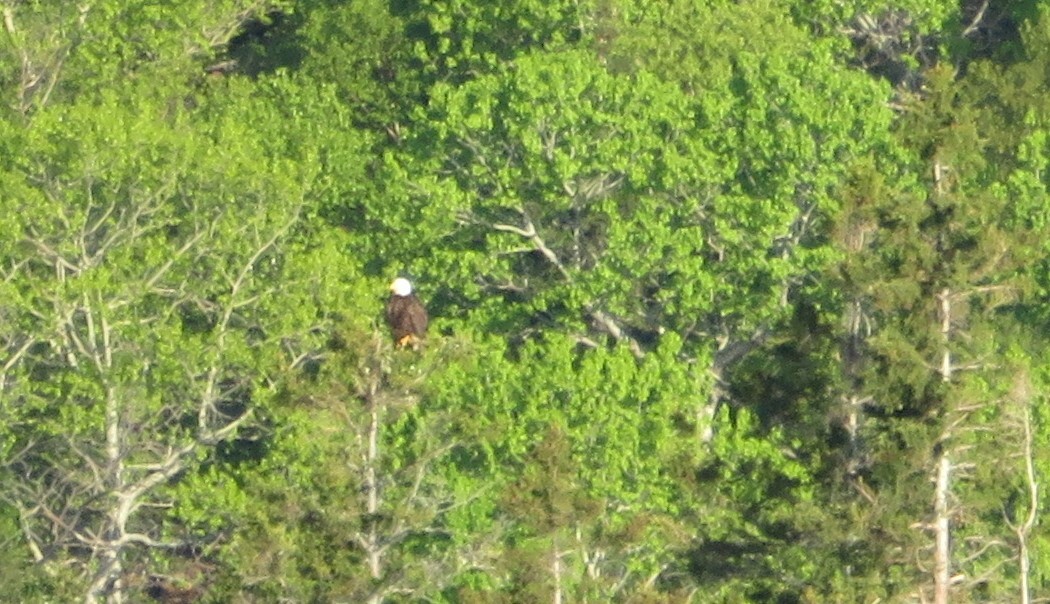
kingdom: Animalia
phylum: Chordata
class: Aves
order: Accipitriformes
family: Accipitridae
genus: Haliaeetus
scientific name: Haliaeetus leucocephalus
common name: Bald eagle
